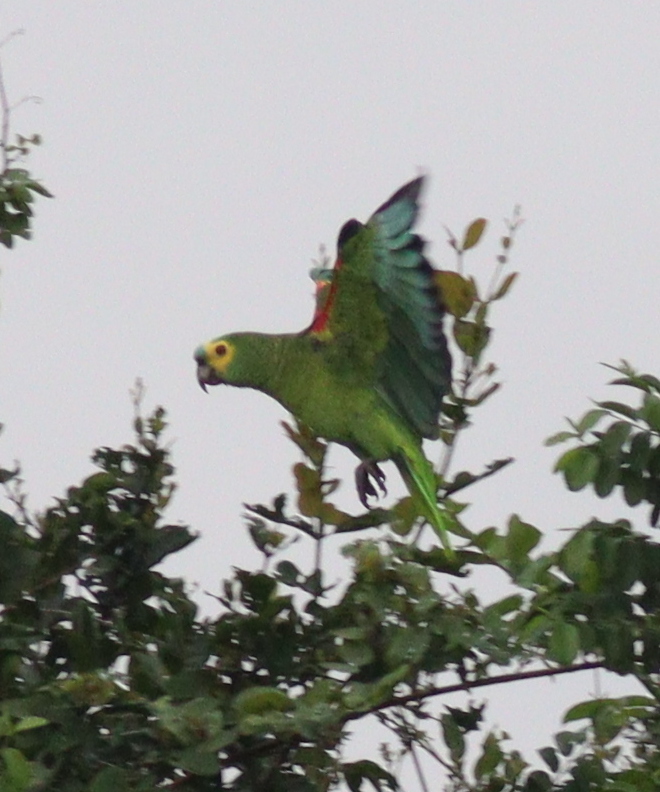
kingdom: Animalia
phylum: Chordata
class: Aves
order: Psittaciformes
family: Psittacidae
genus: Amazona
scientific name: Amazona aestiva
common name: Turquoise-fronted amazon
